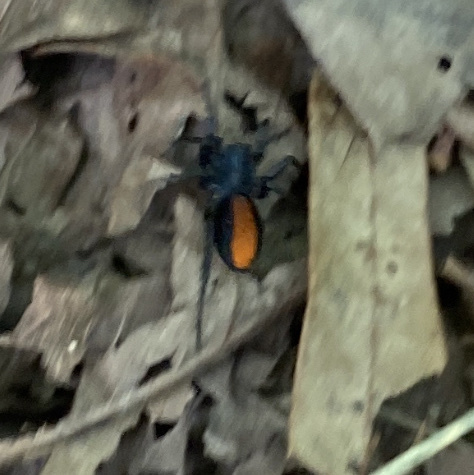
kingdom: Animalia
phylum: Arthropoda
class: Arachnida
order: Araneae
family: Corinnidae
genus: Castianeira
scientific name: Castianeira descripta
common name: Red-spotted ant-mimic sac spider
